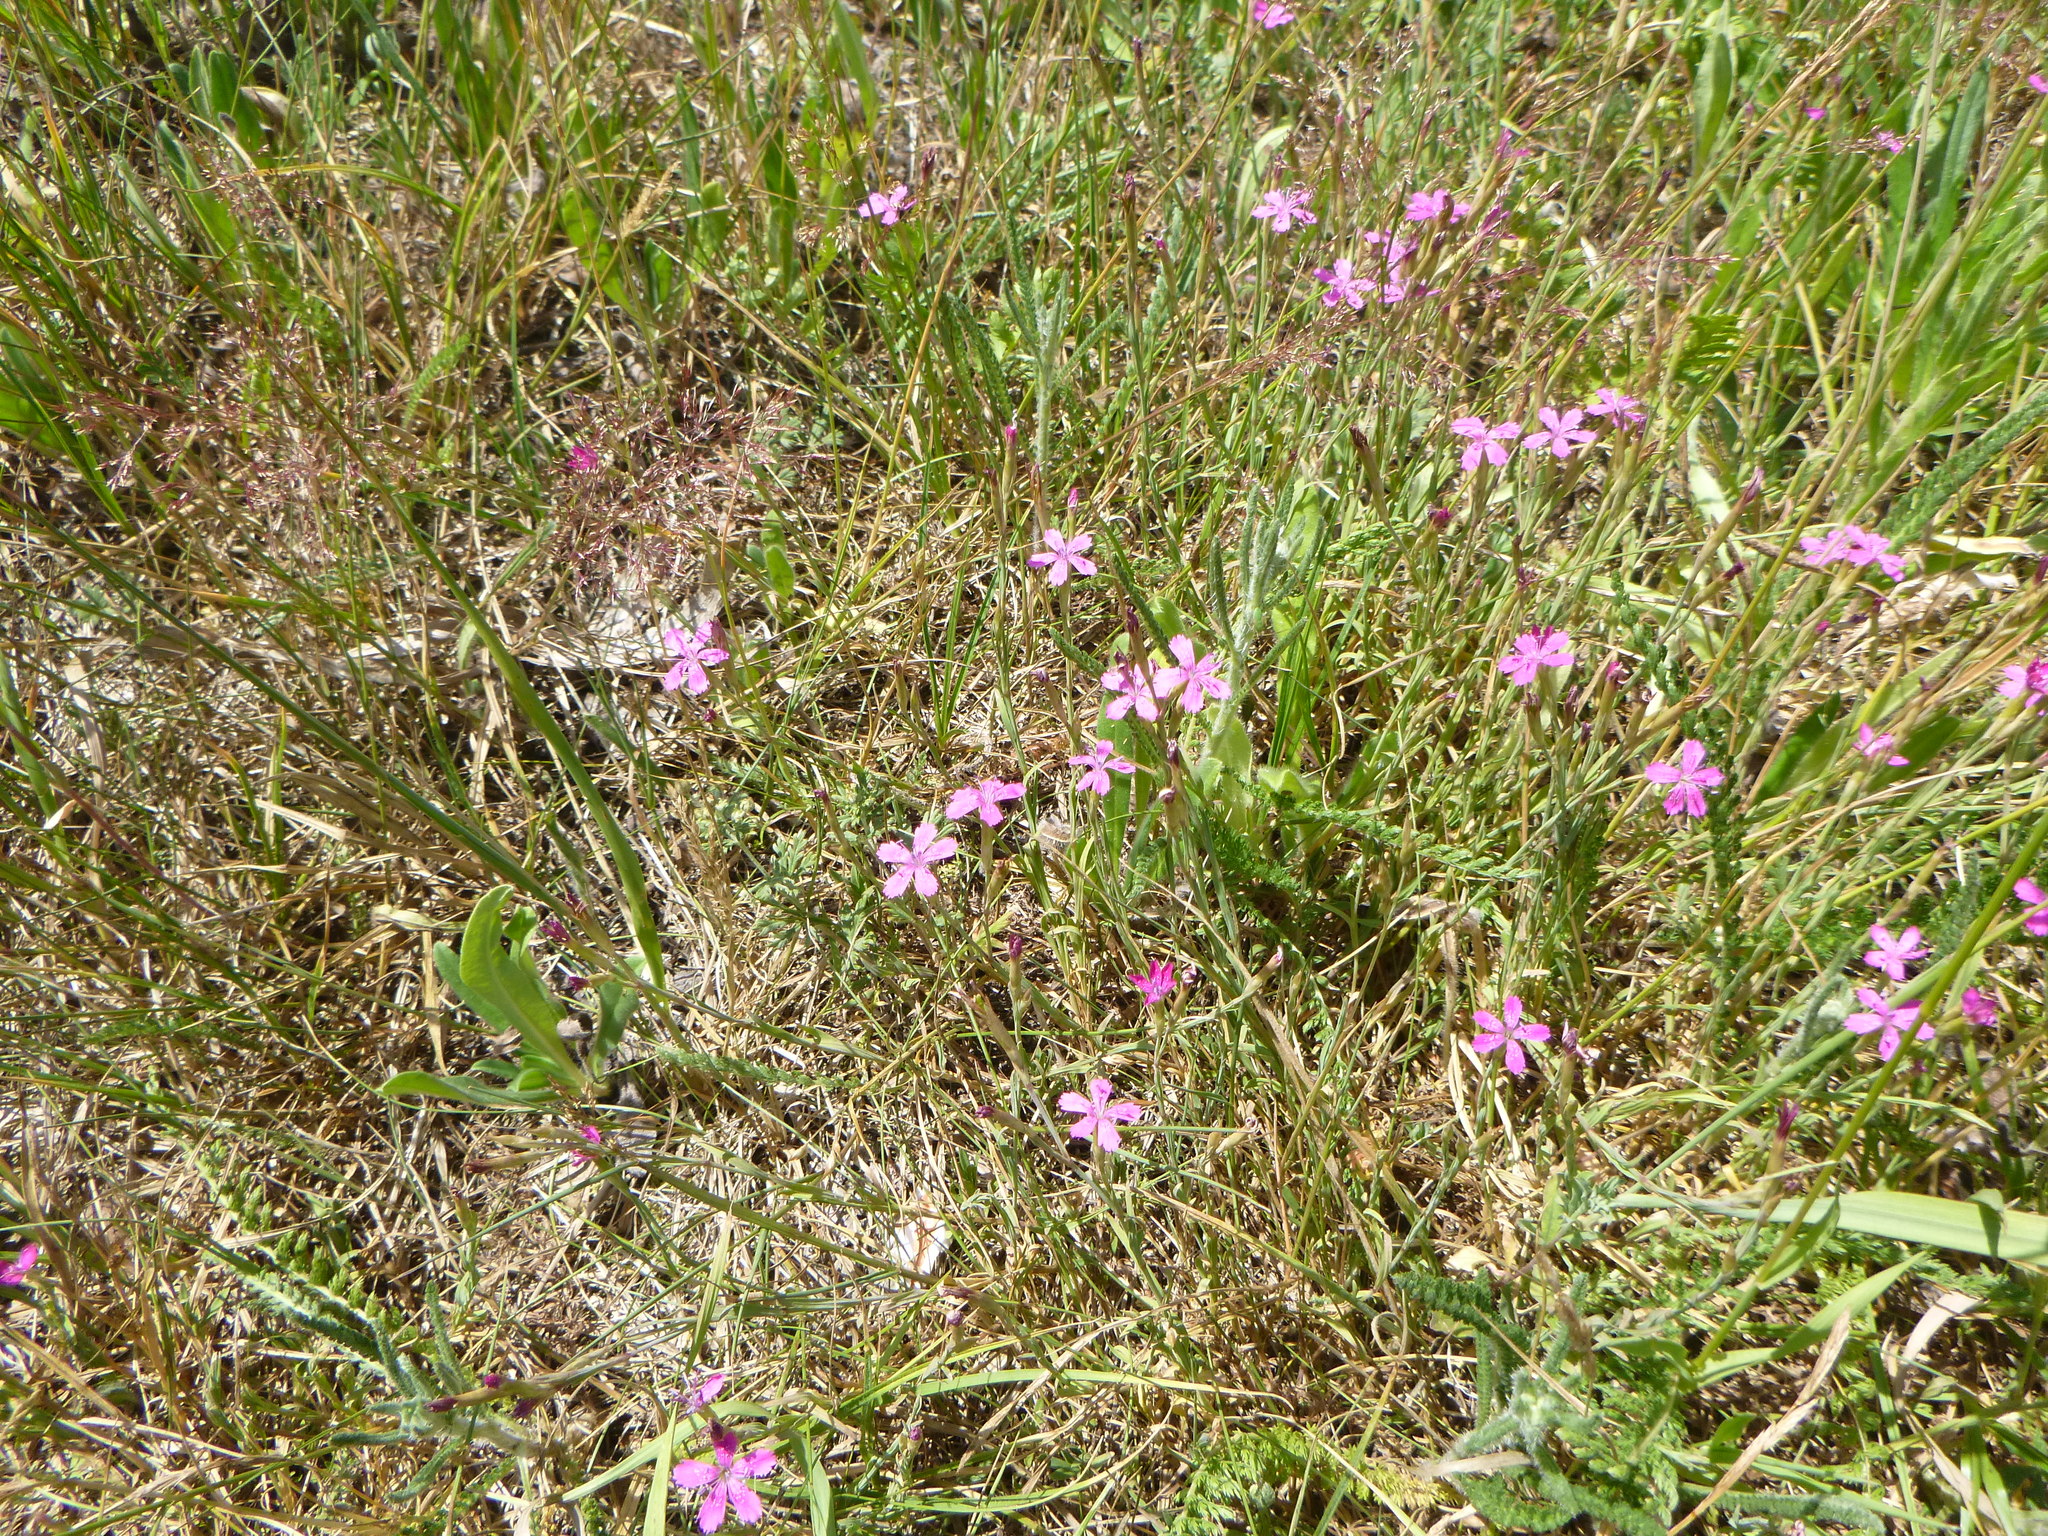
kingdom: Plantae
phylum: Tracheophyta
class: Magnoliopsida
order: Caryophyllales
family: Caryophyllaceae
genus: Dianthus
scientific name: Dianthus deltoides
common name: Maiden pink
